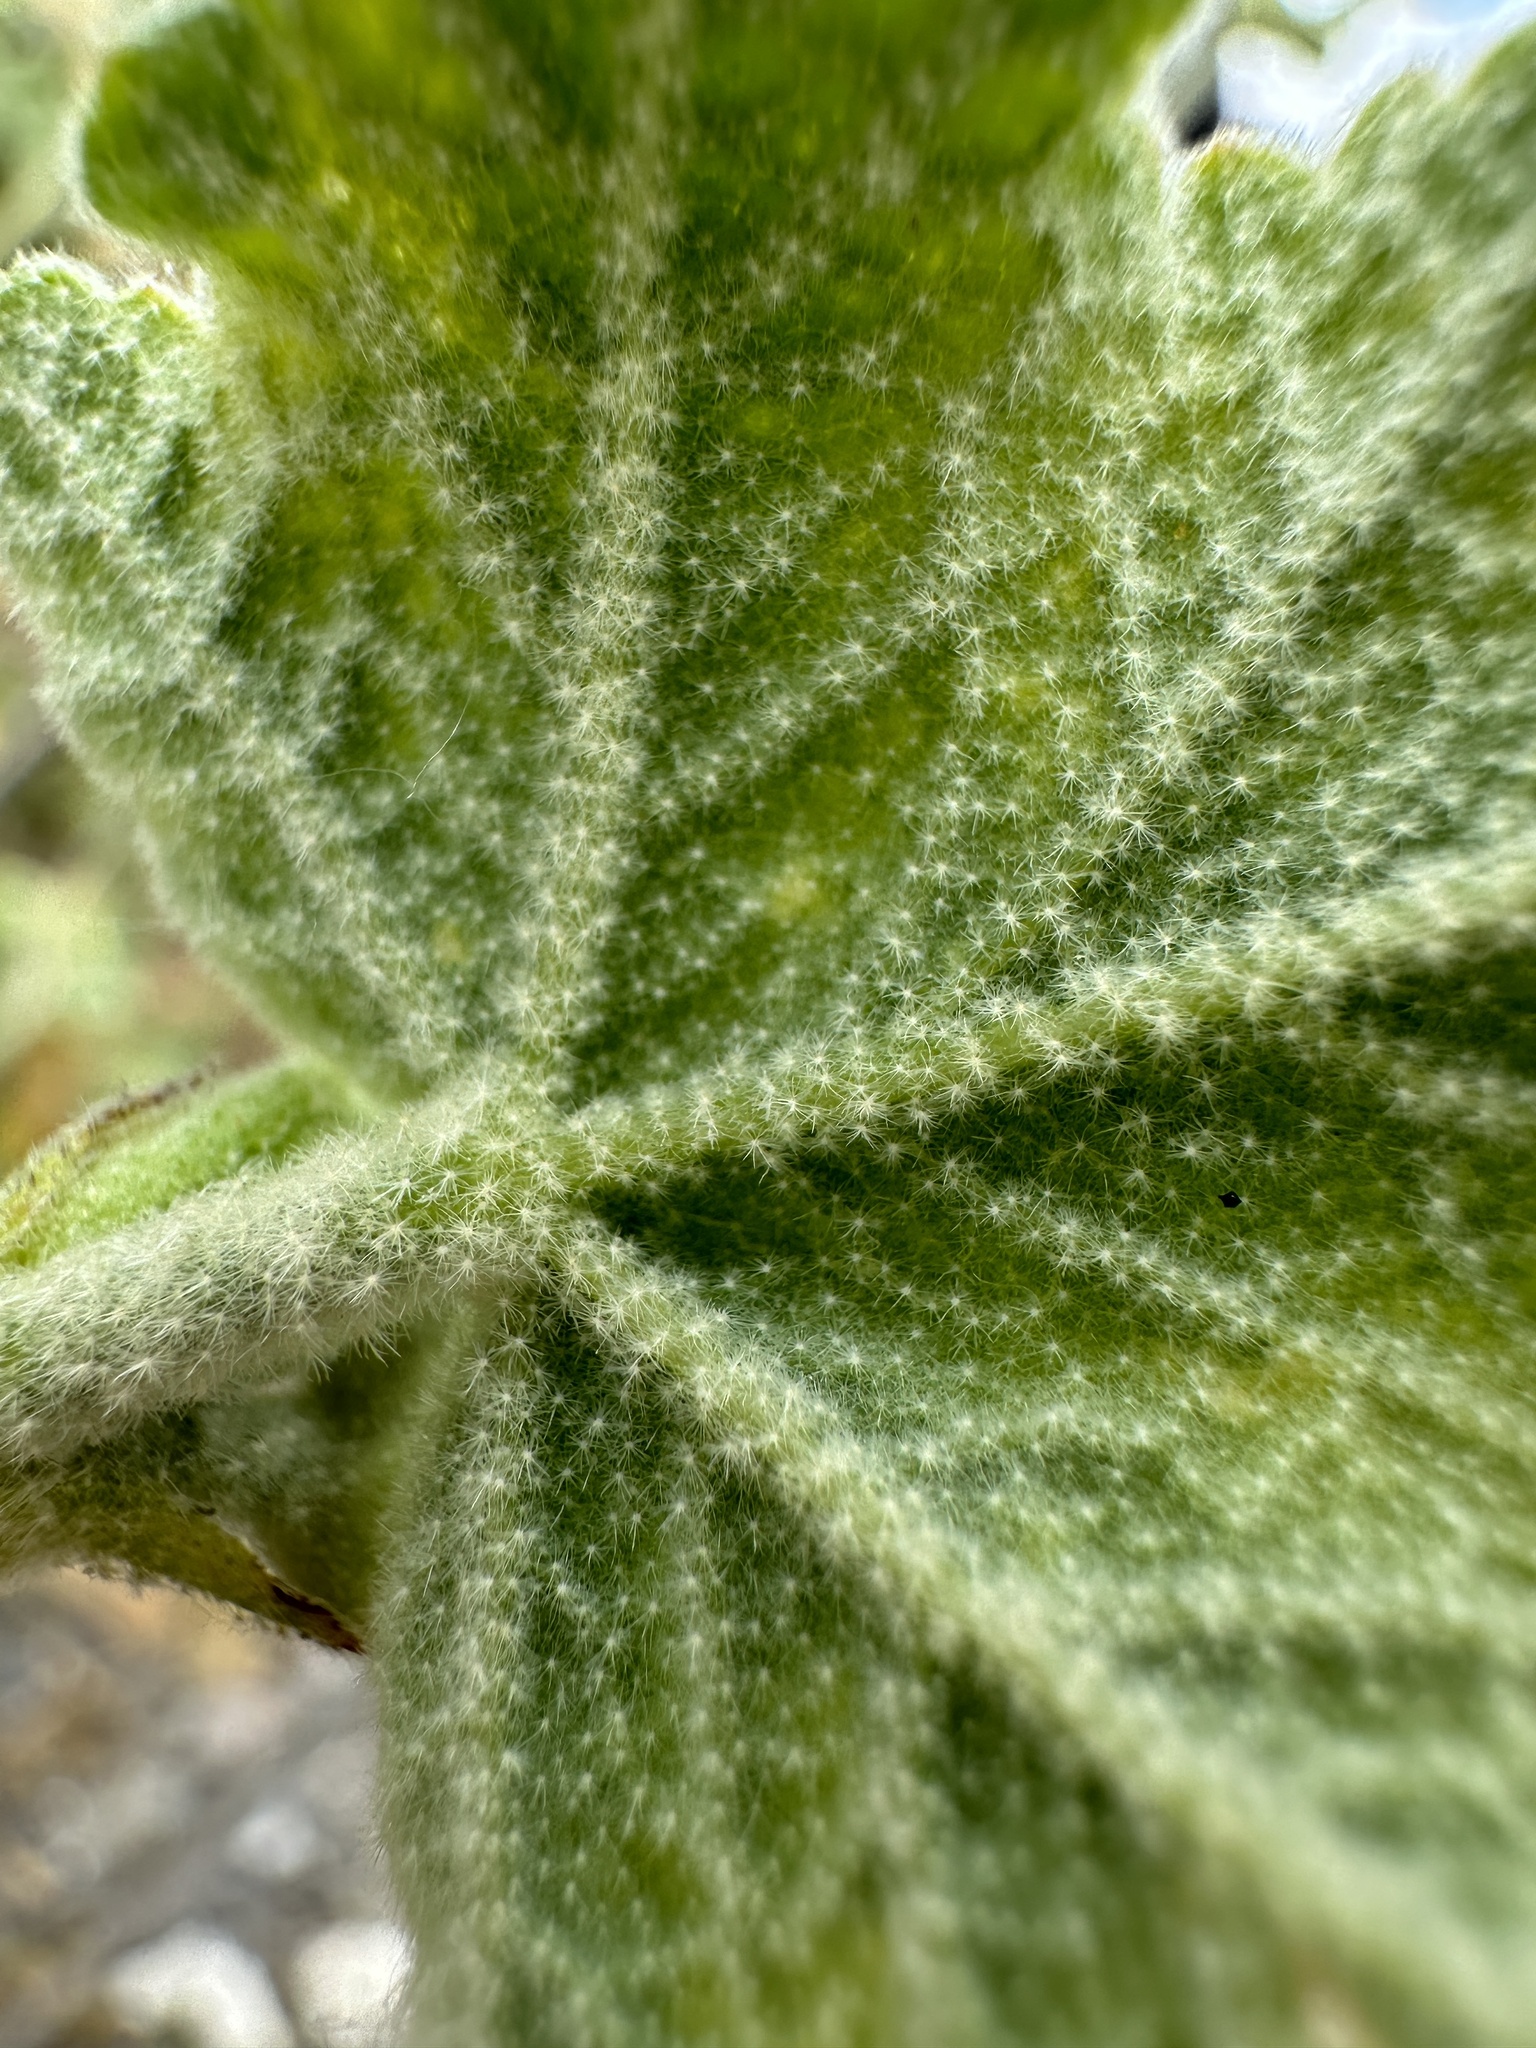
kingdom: Plantae
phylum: Tracheophyta
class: Magnoliopsida
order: Malvales
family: Malvaceae
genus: Malacothamnus
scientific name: Malacothamnus aboriginum
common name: Indian valley bush-mallow
